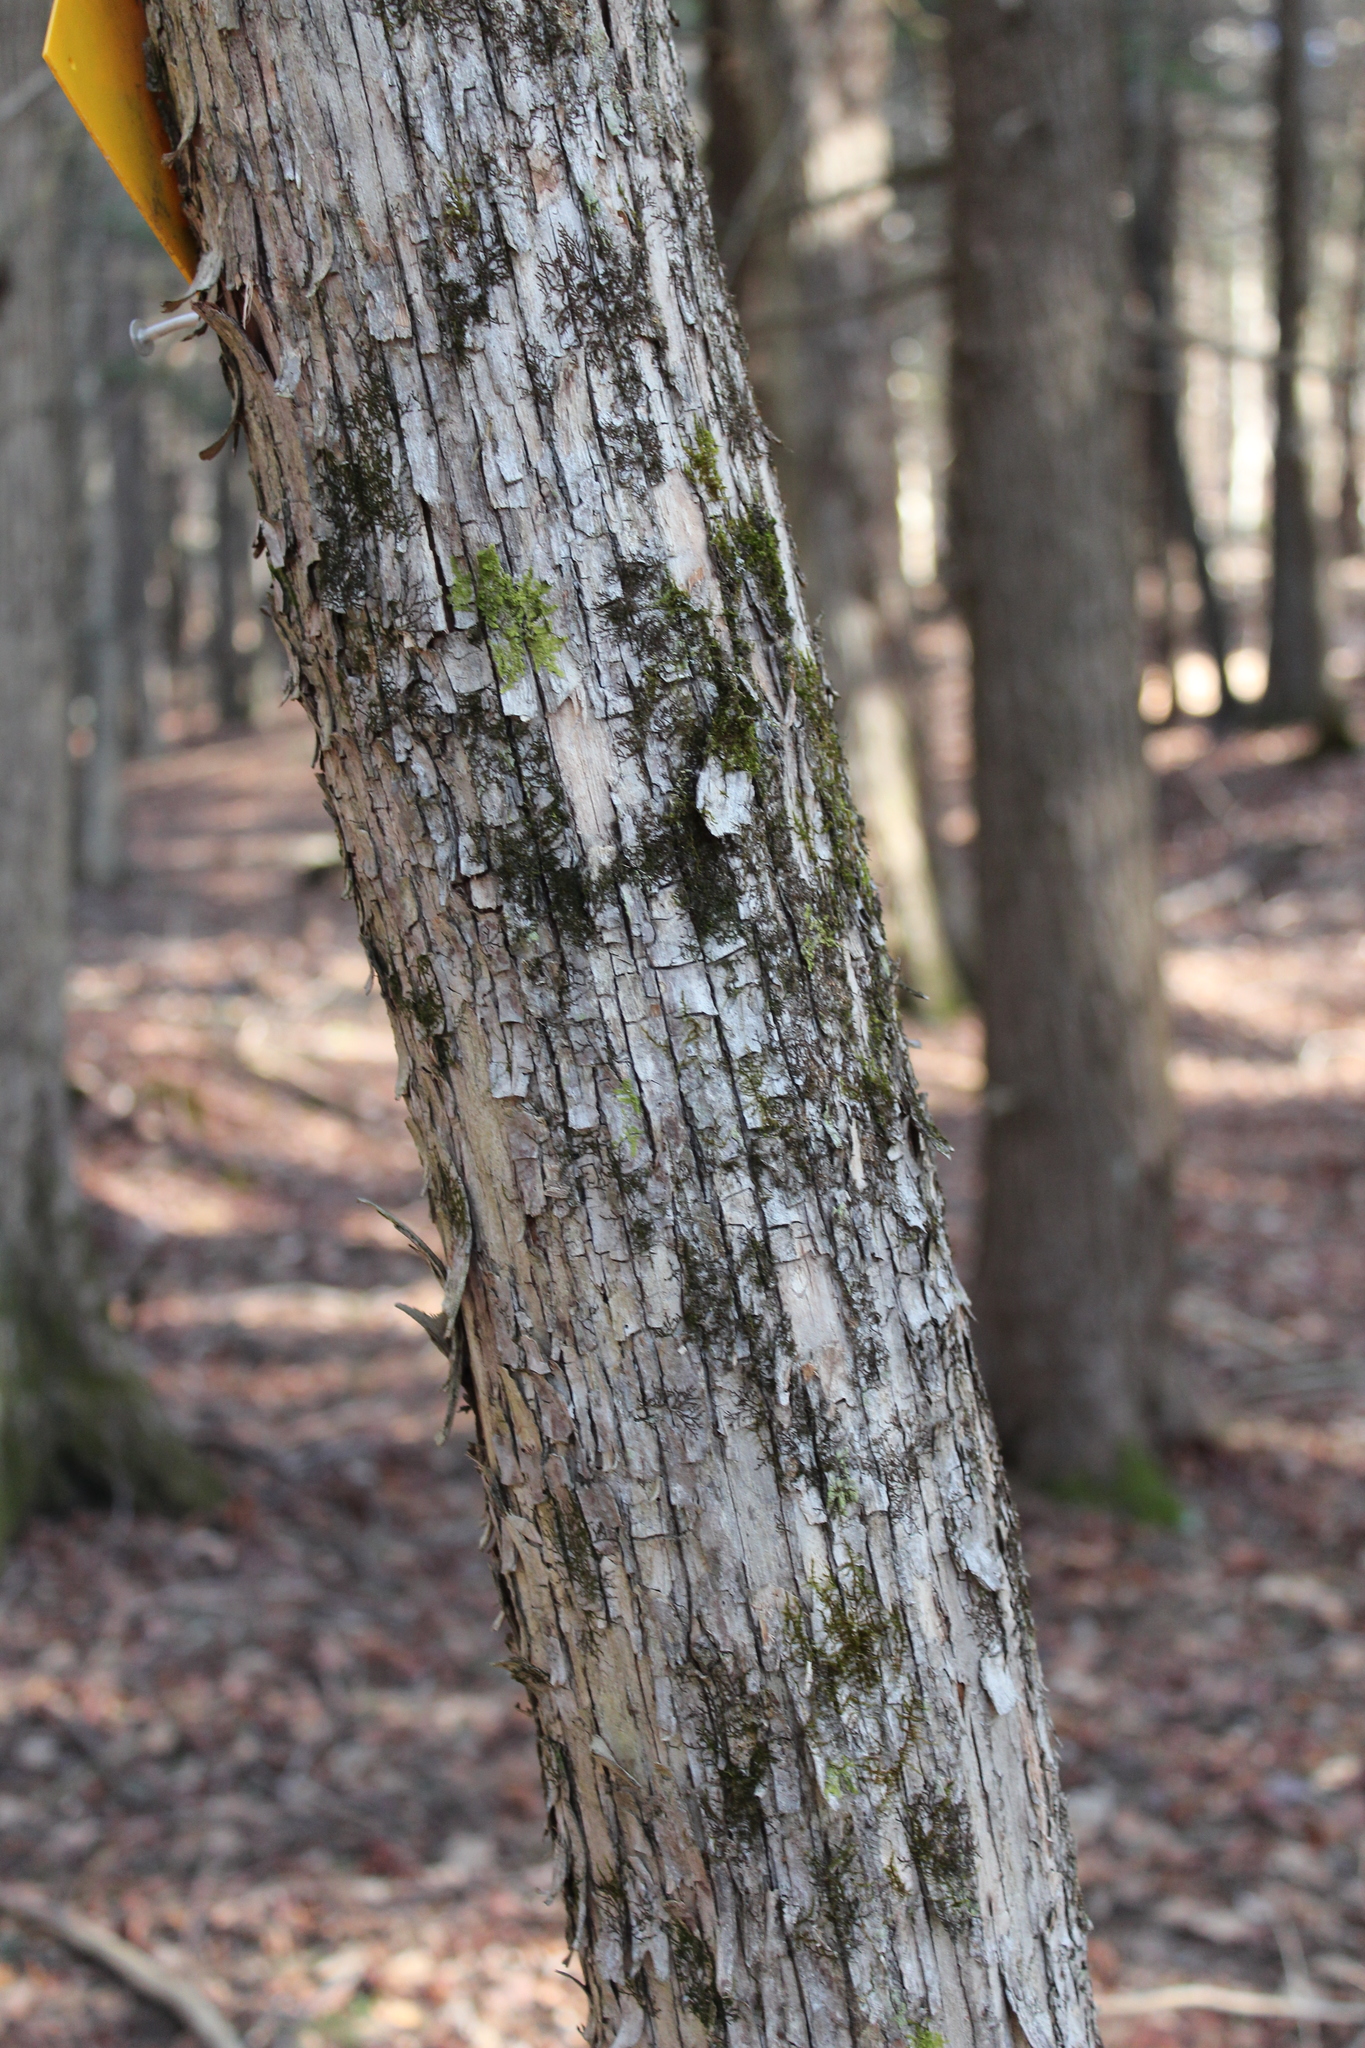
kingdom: Plantae
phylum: Tracheophyta
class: Magnoliopsida
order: Fagales
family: Betulaceae
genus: Ostrya
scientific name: Ostrya virginiana
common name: Ironwood
